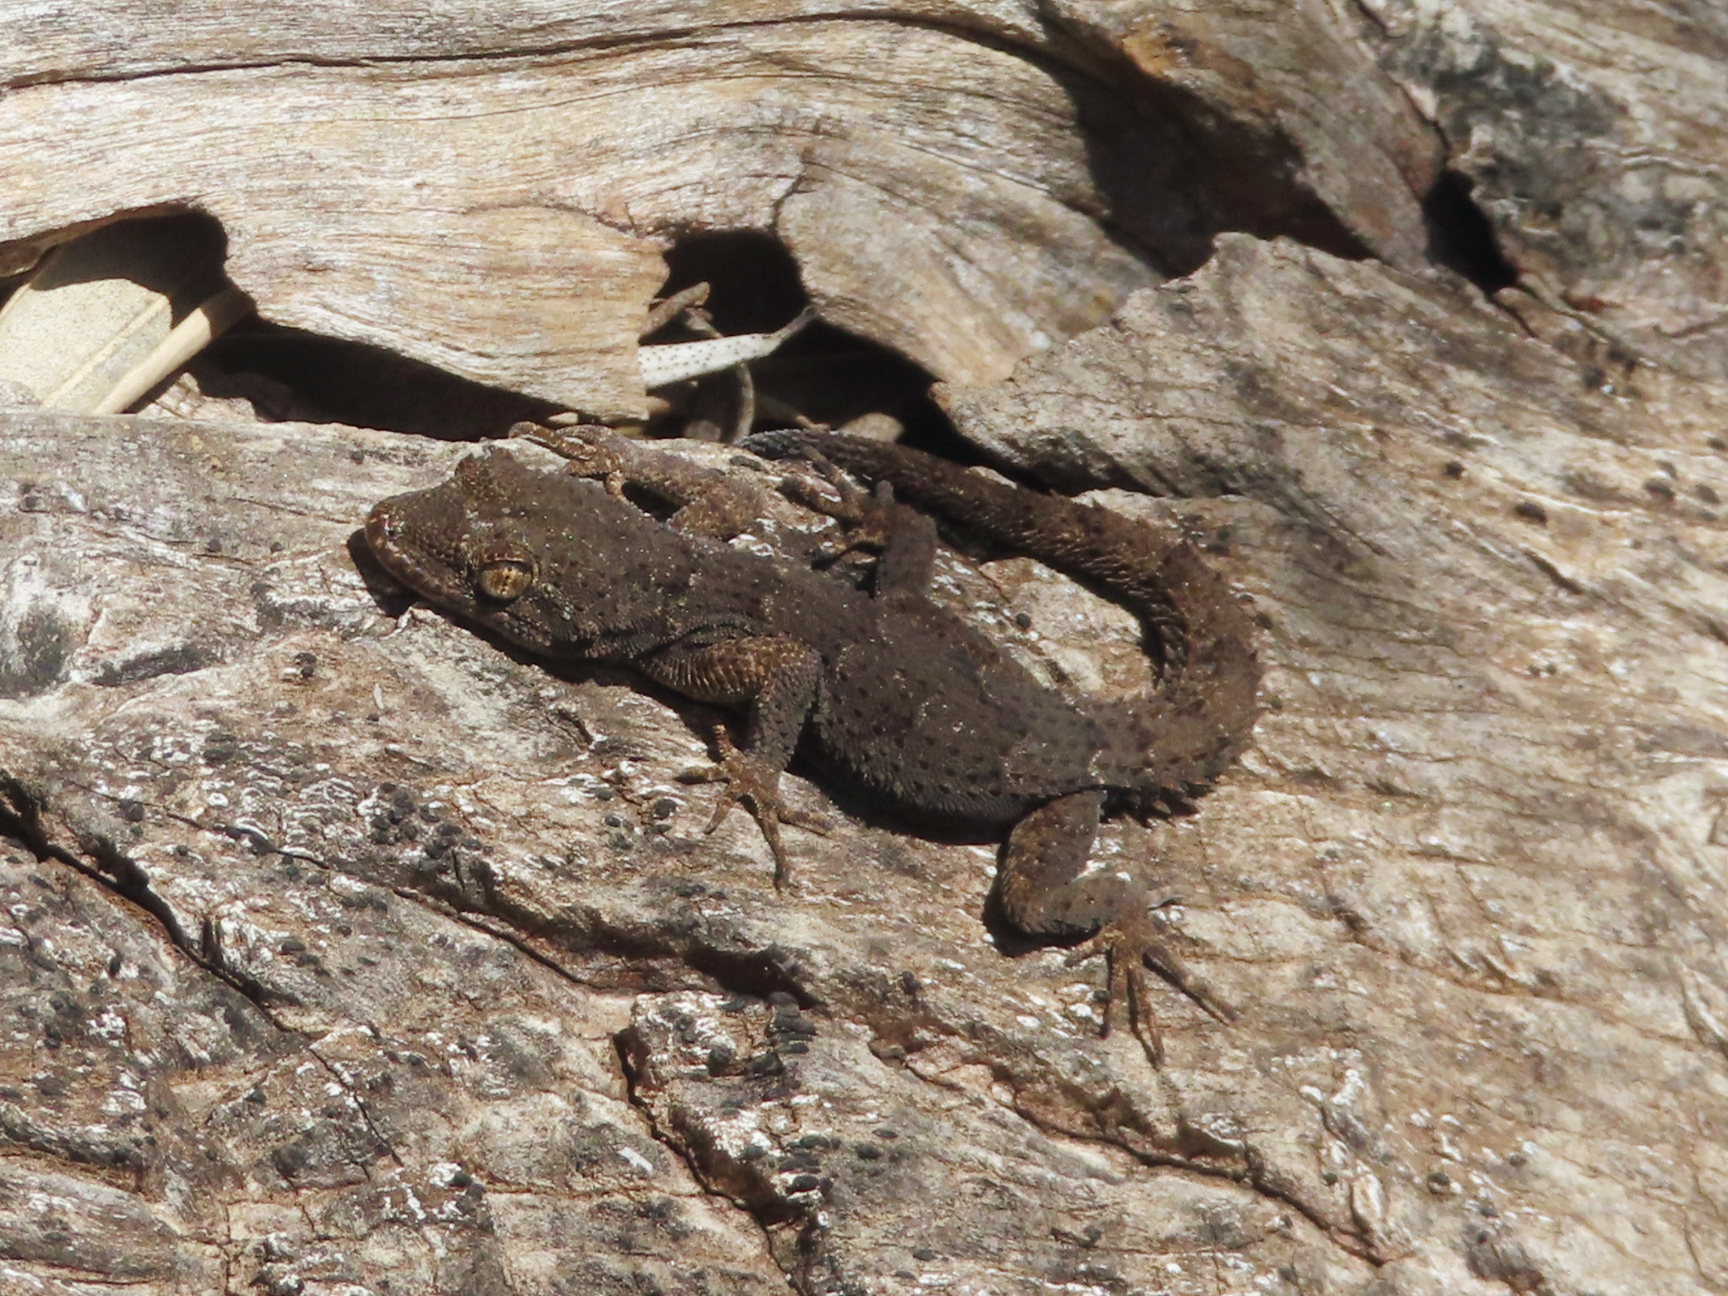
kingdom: Animalia
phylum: Chordata
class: Squamata
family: Gekkonidae
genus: Mediodactylus
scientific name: Mediodactylus kotschyi
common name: Kotschy's gecko
